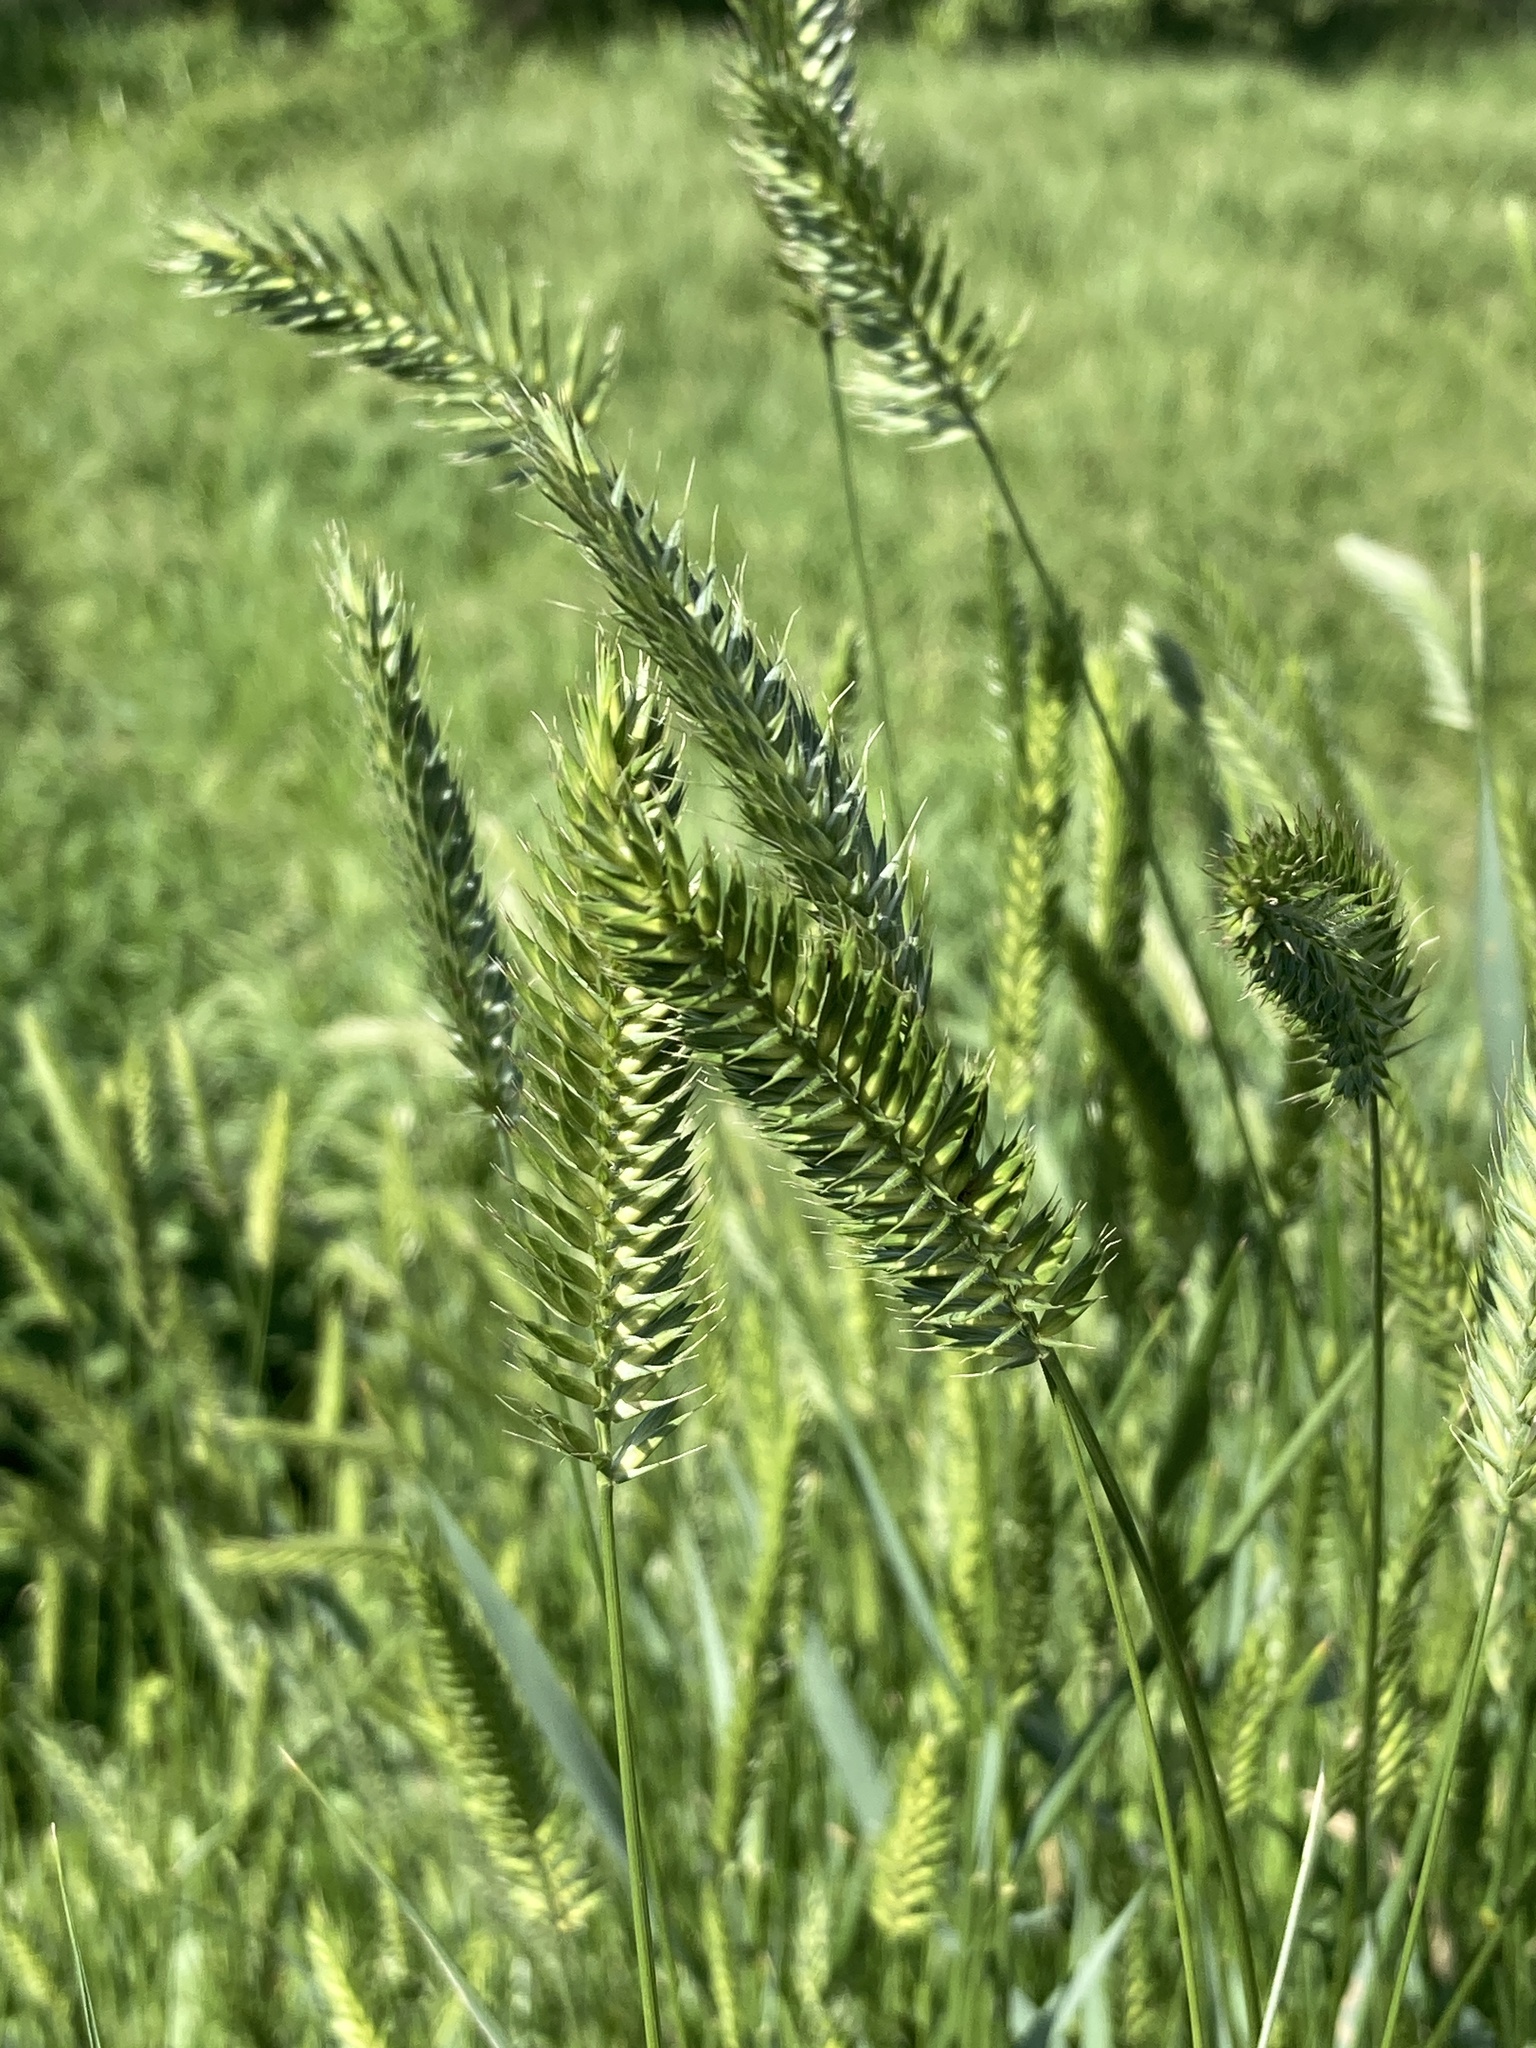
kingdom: Plantae
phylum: Tracheophyta
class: Liliopsida
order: Poales
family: Poaceae
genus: Agropyron
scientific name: Agropyron cristatum
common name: Crested wheatgrass
